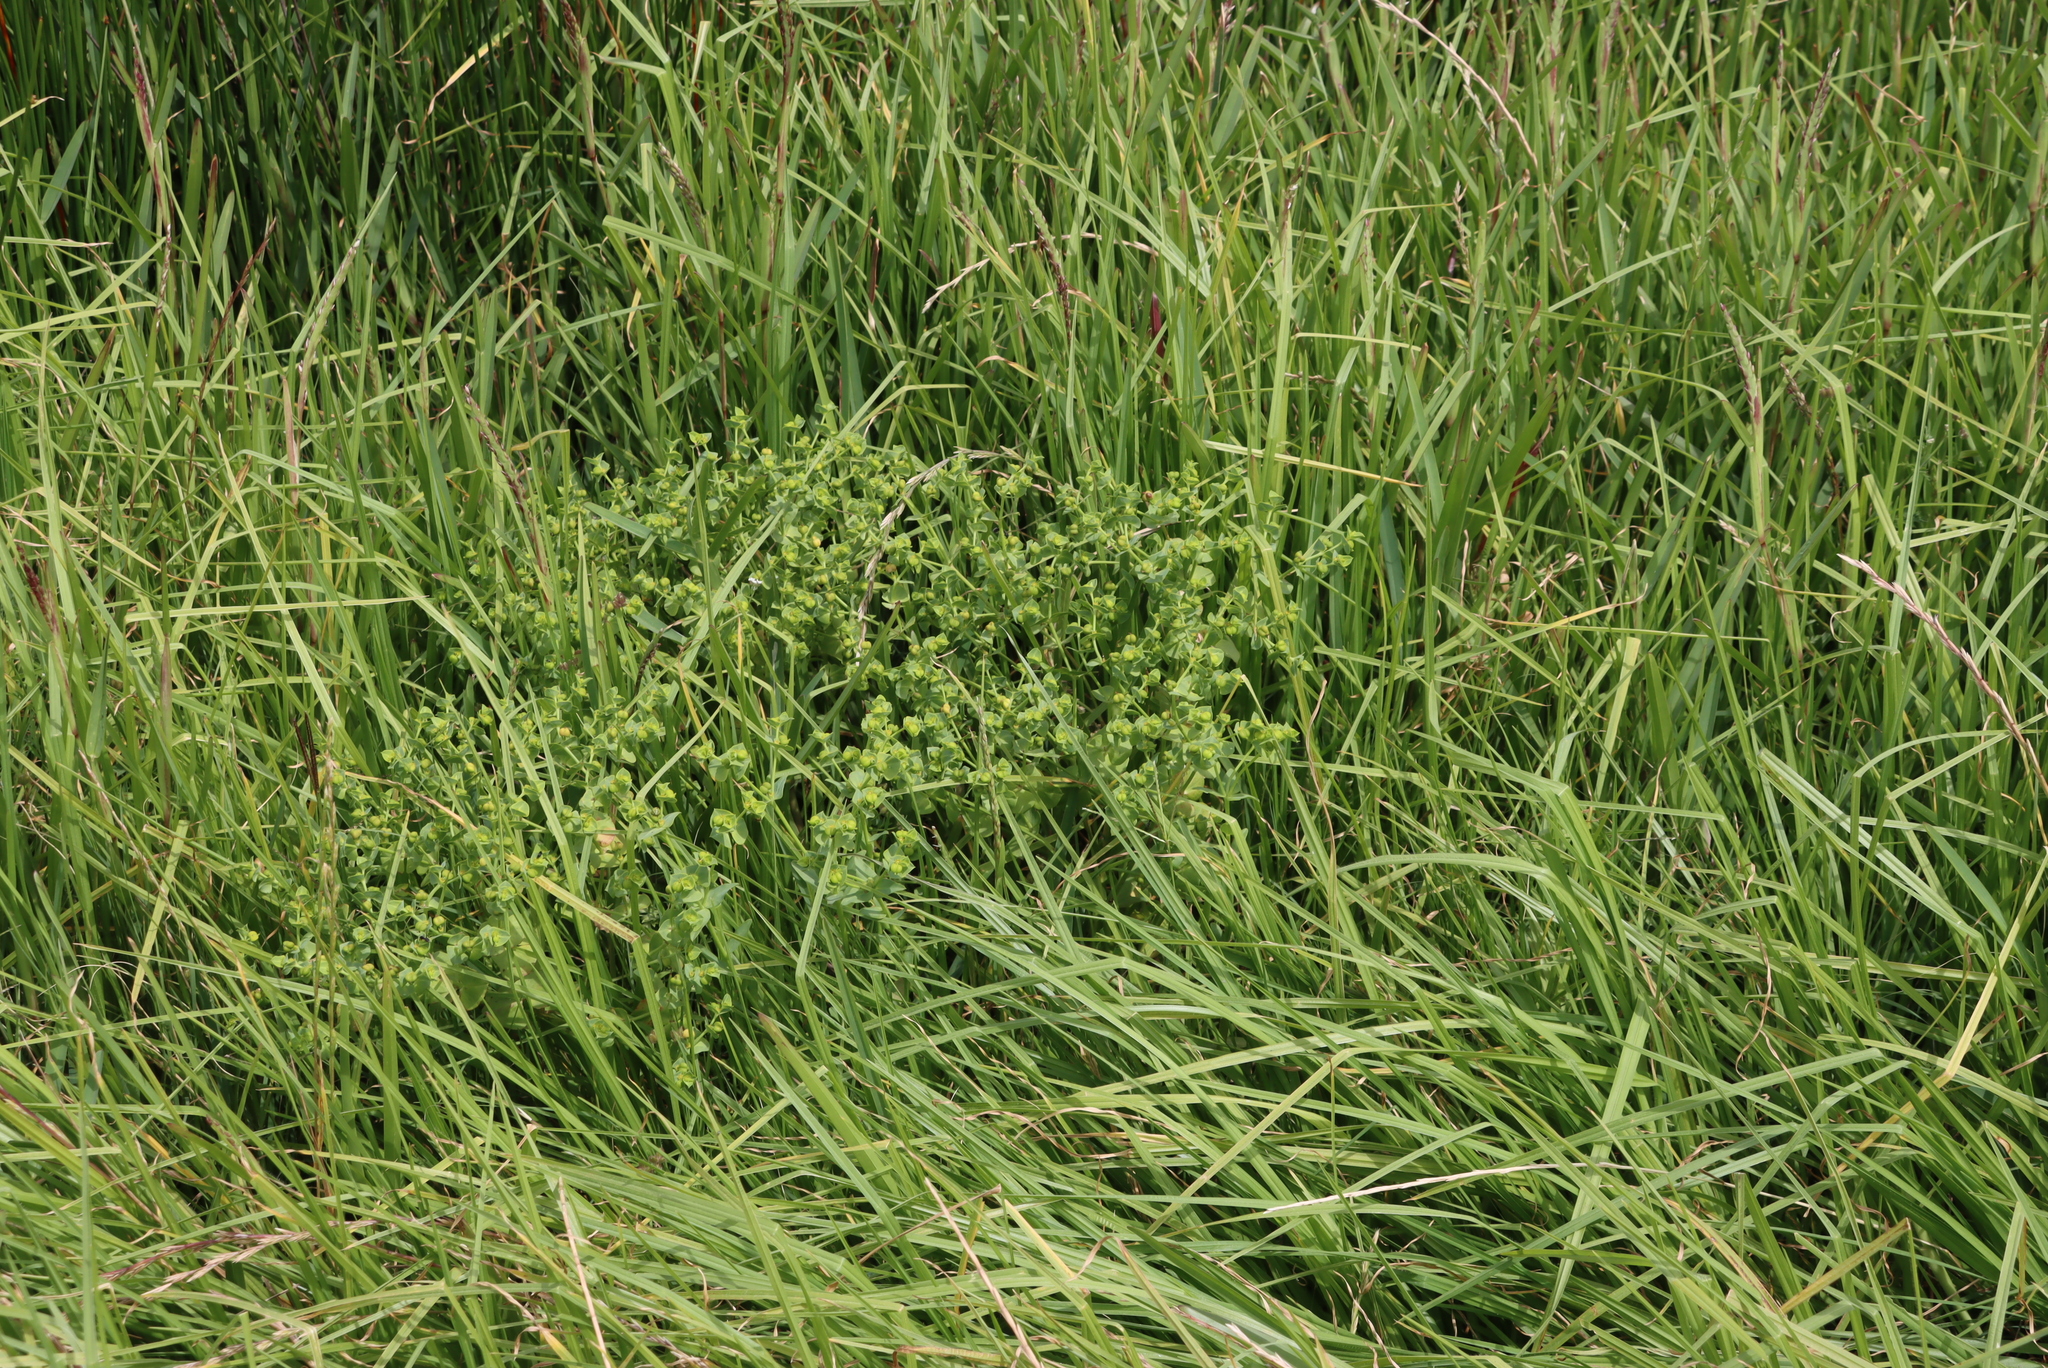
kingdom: Plantae
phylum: Tracheophyta
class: Magnoliopsida
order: Malpighiales
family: Euphorbiaceae
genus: Euphorbia
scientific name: Euphorbia terracina
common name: Geraldton carnation weed
